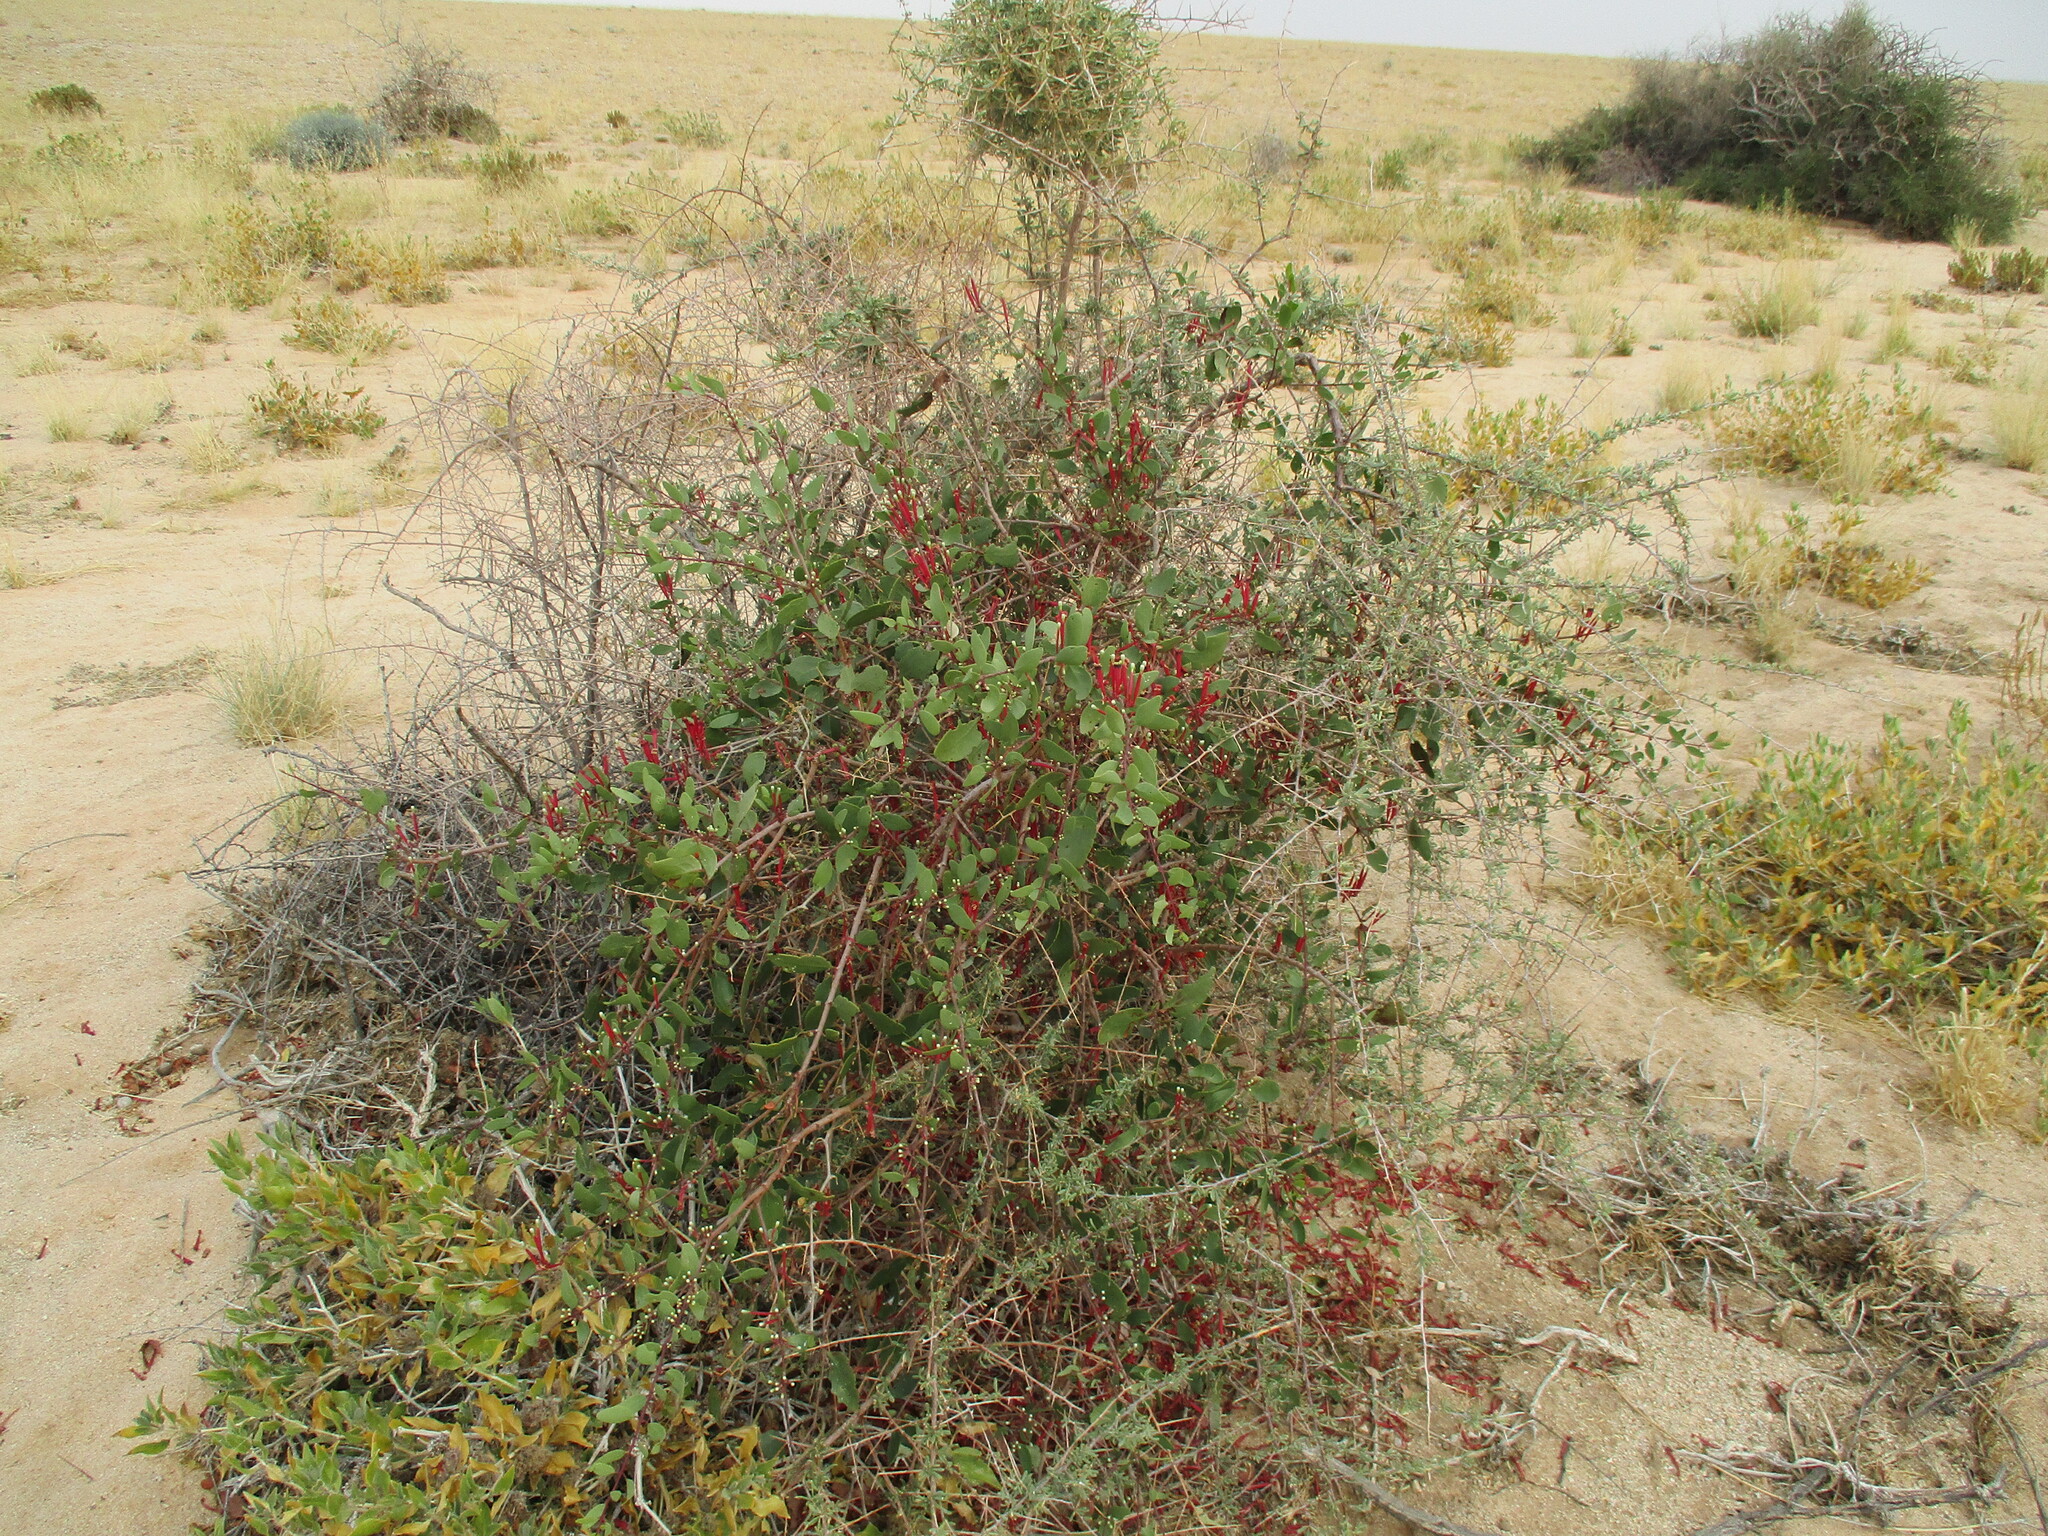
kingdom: Plantae
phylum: Tracheophyta
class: Magnoliopsida
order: Santalales
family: Loranthaceae
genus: Tapinanthus
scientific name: Tapinanthus oleifolius
